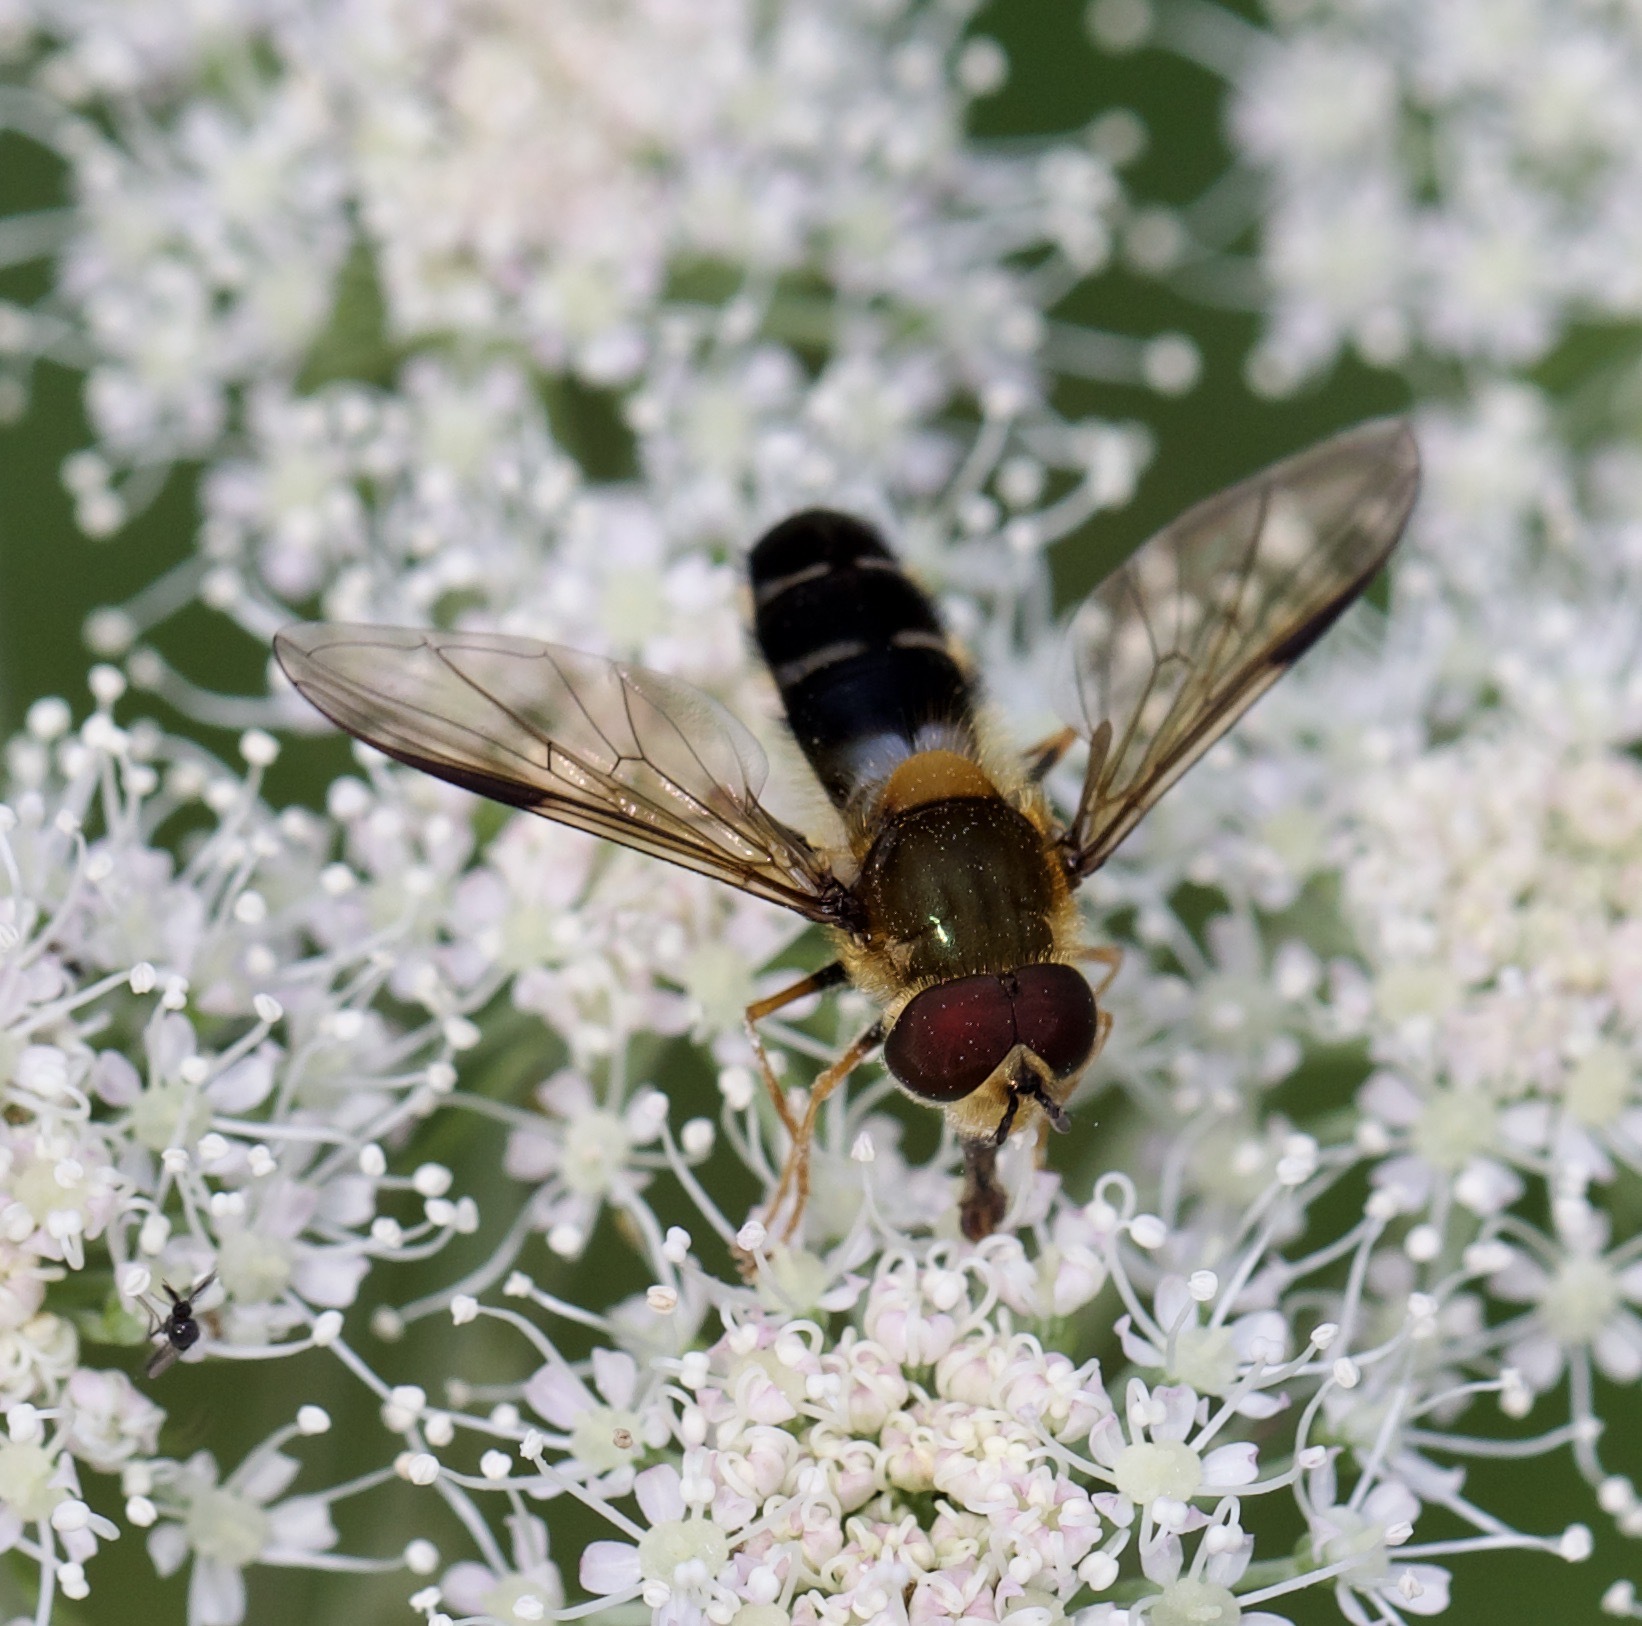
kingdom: Animalia
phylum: Arthropoda
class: Insecta
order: Diptera
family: Syrphidae
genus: Leucozona
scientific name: Leucozona glaucia
